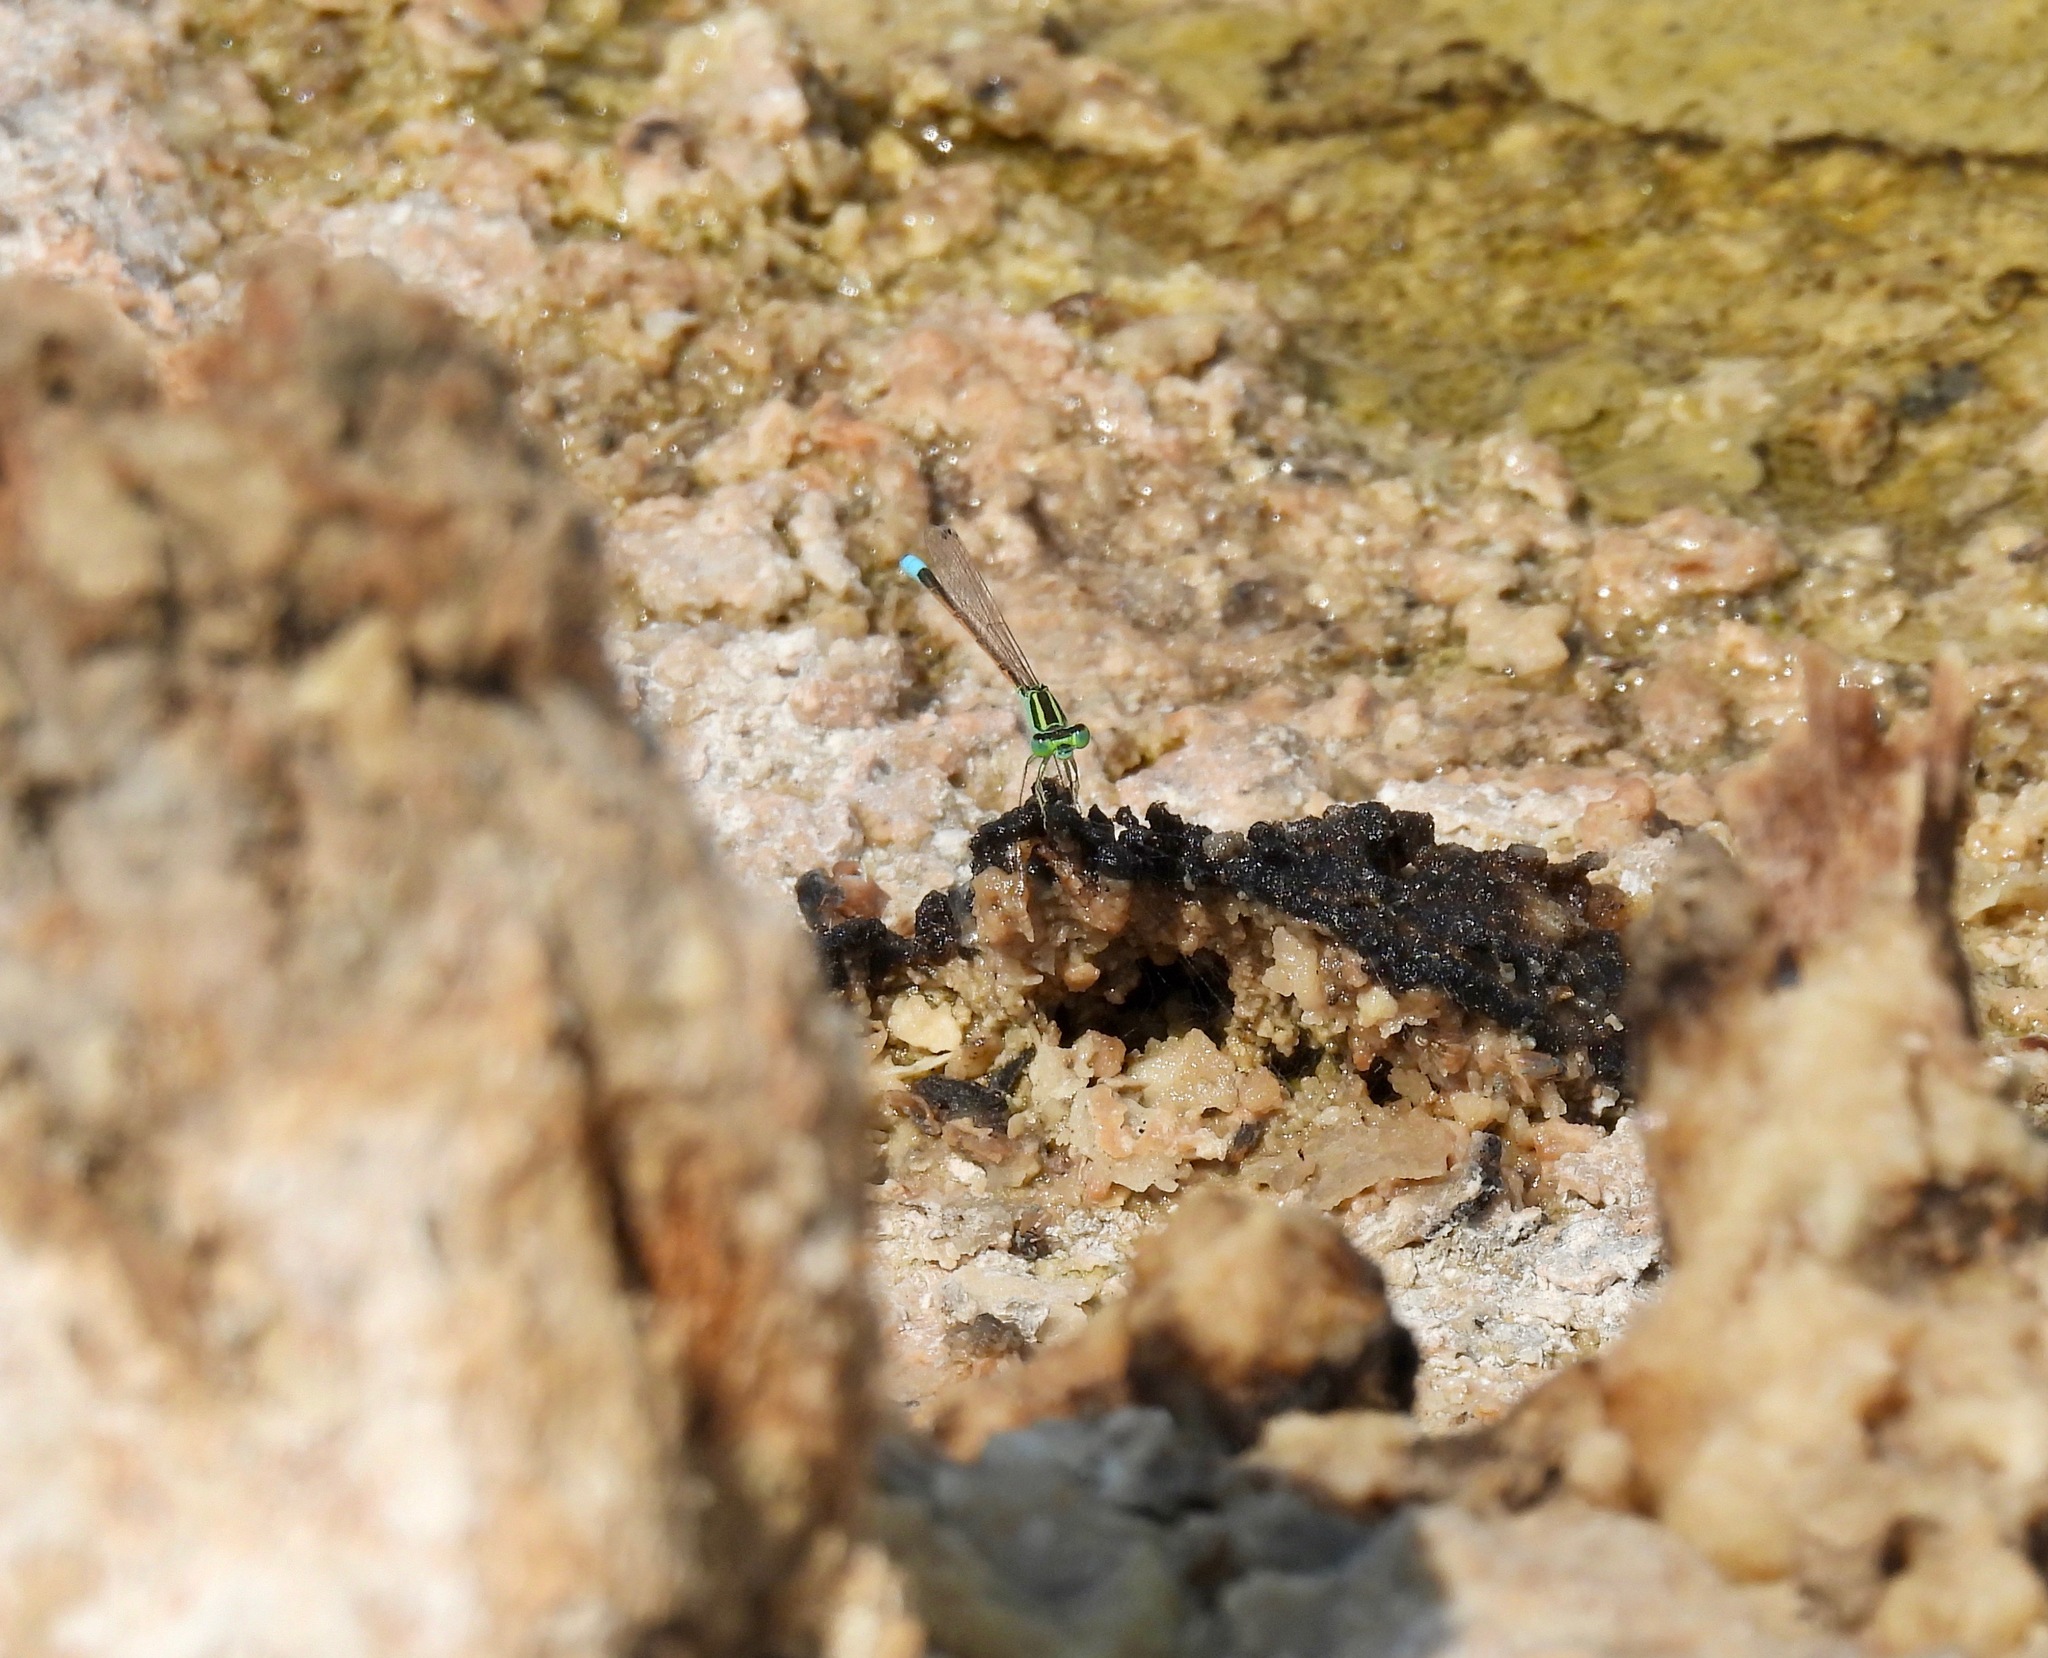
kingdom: Animalia
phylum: Arthropoda
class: Insecta
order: Odonata
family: Coenagrionidae
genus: Ischnura
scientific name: Ischnura barberi
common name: Desert forktail
